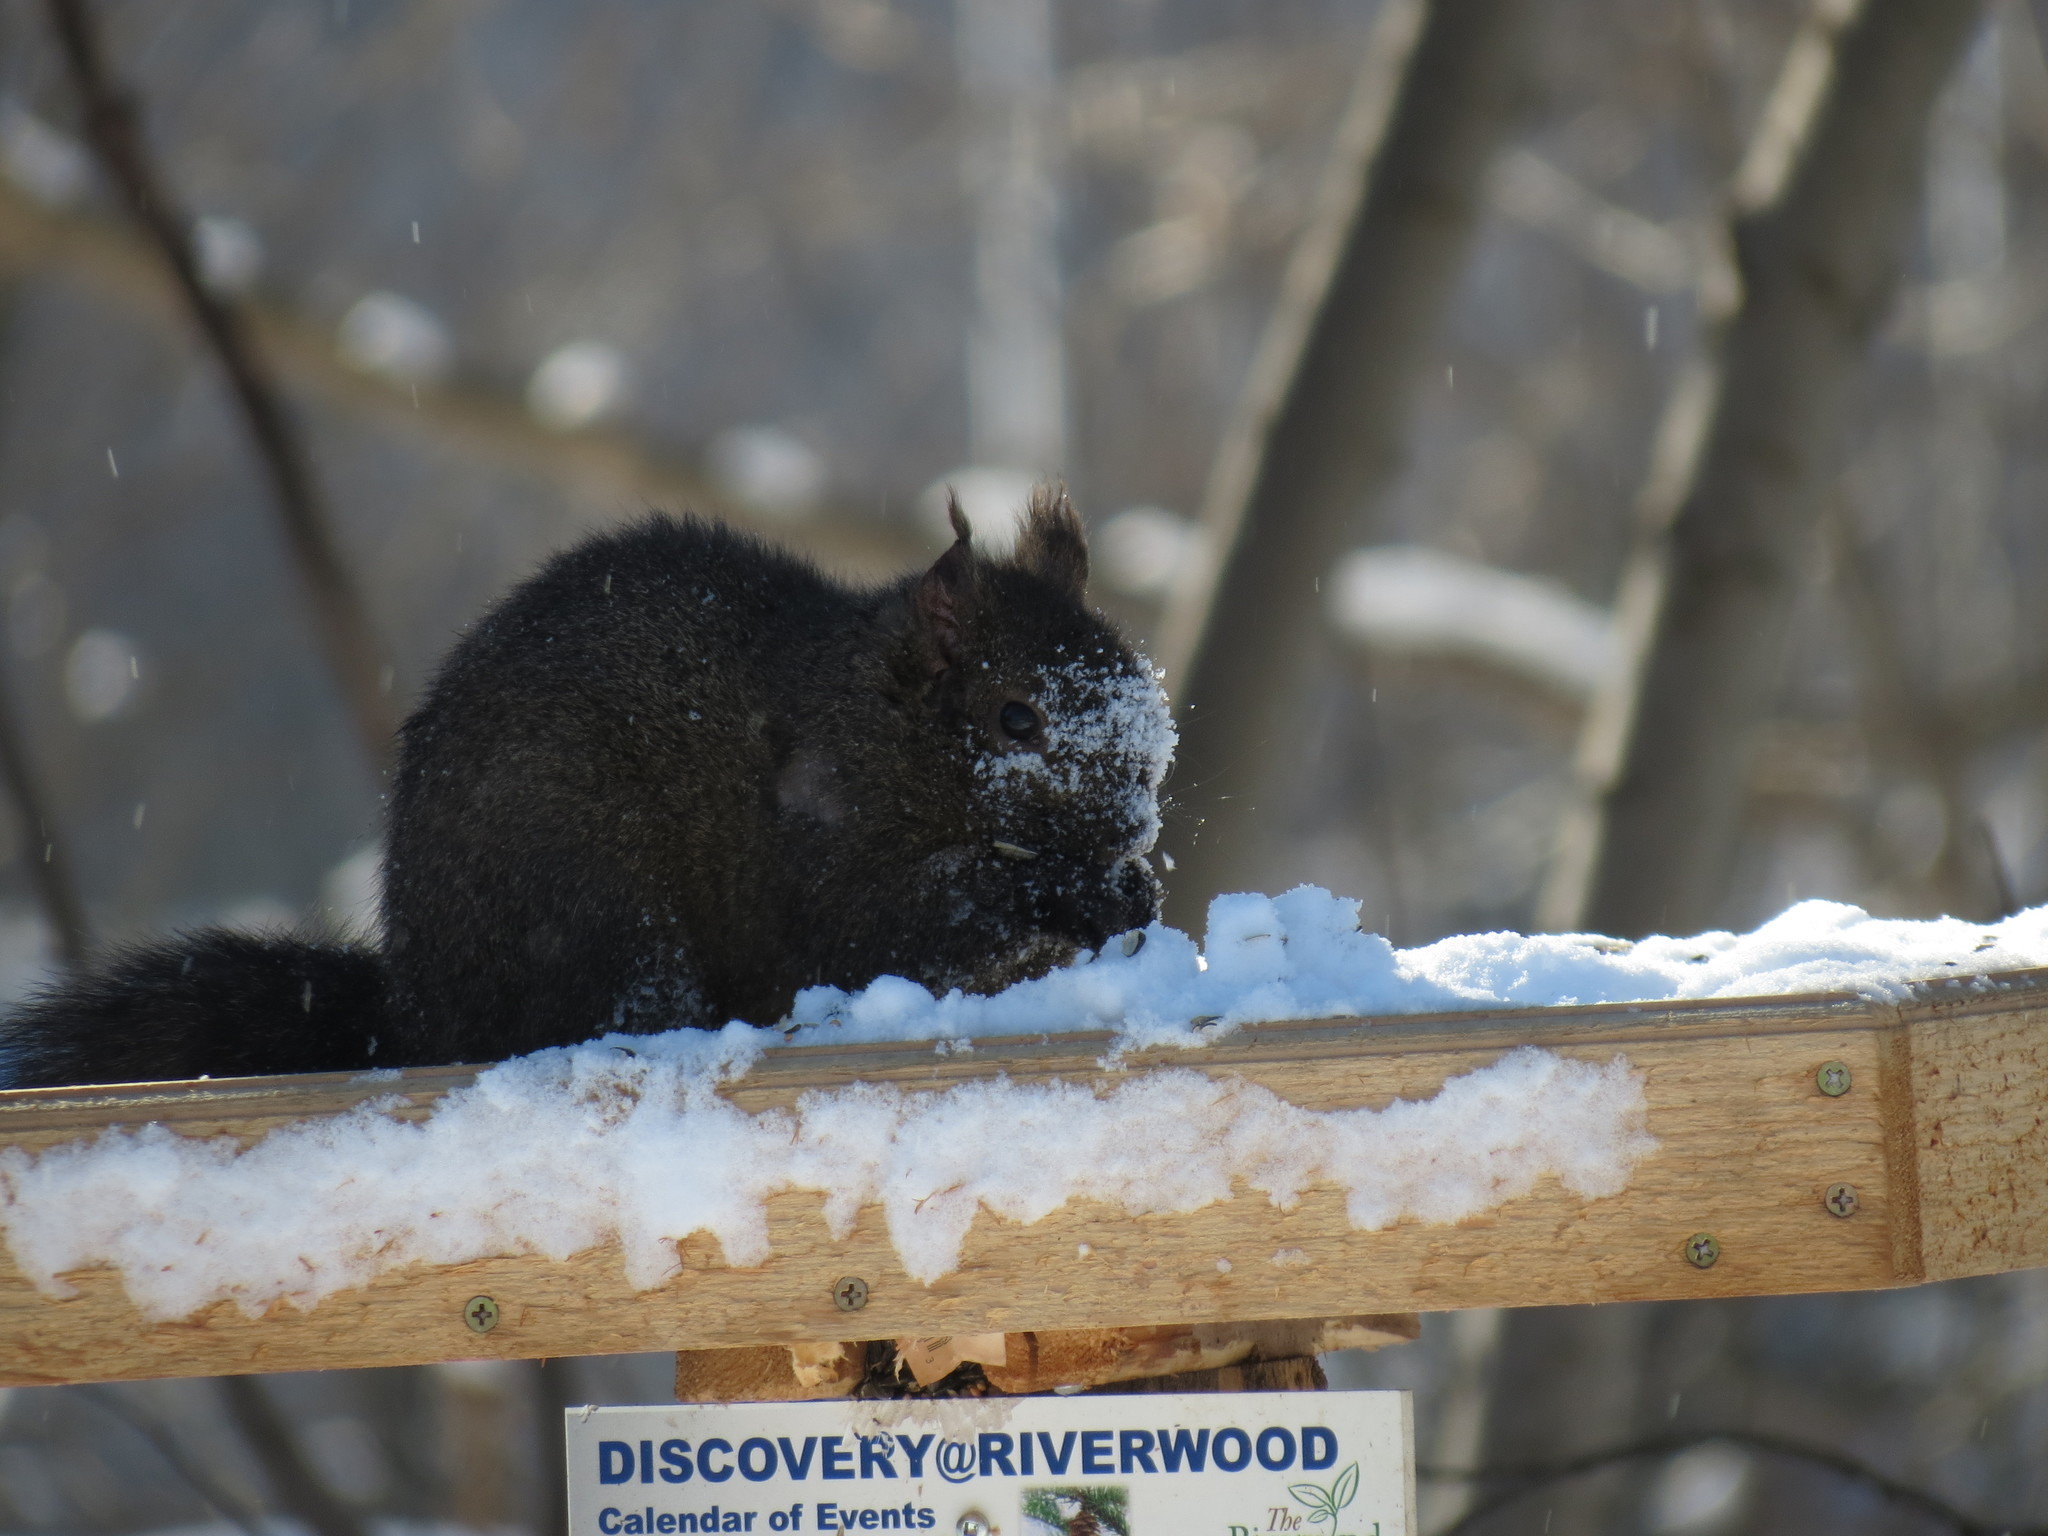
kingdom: Animalia
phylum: Chordata
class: Mammalia
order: Rodentia
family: Sciuridae
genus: Sciurus
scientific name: Sciurus carolinensis
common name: Eastern gray squirrel
